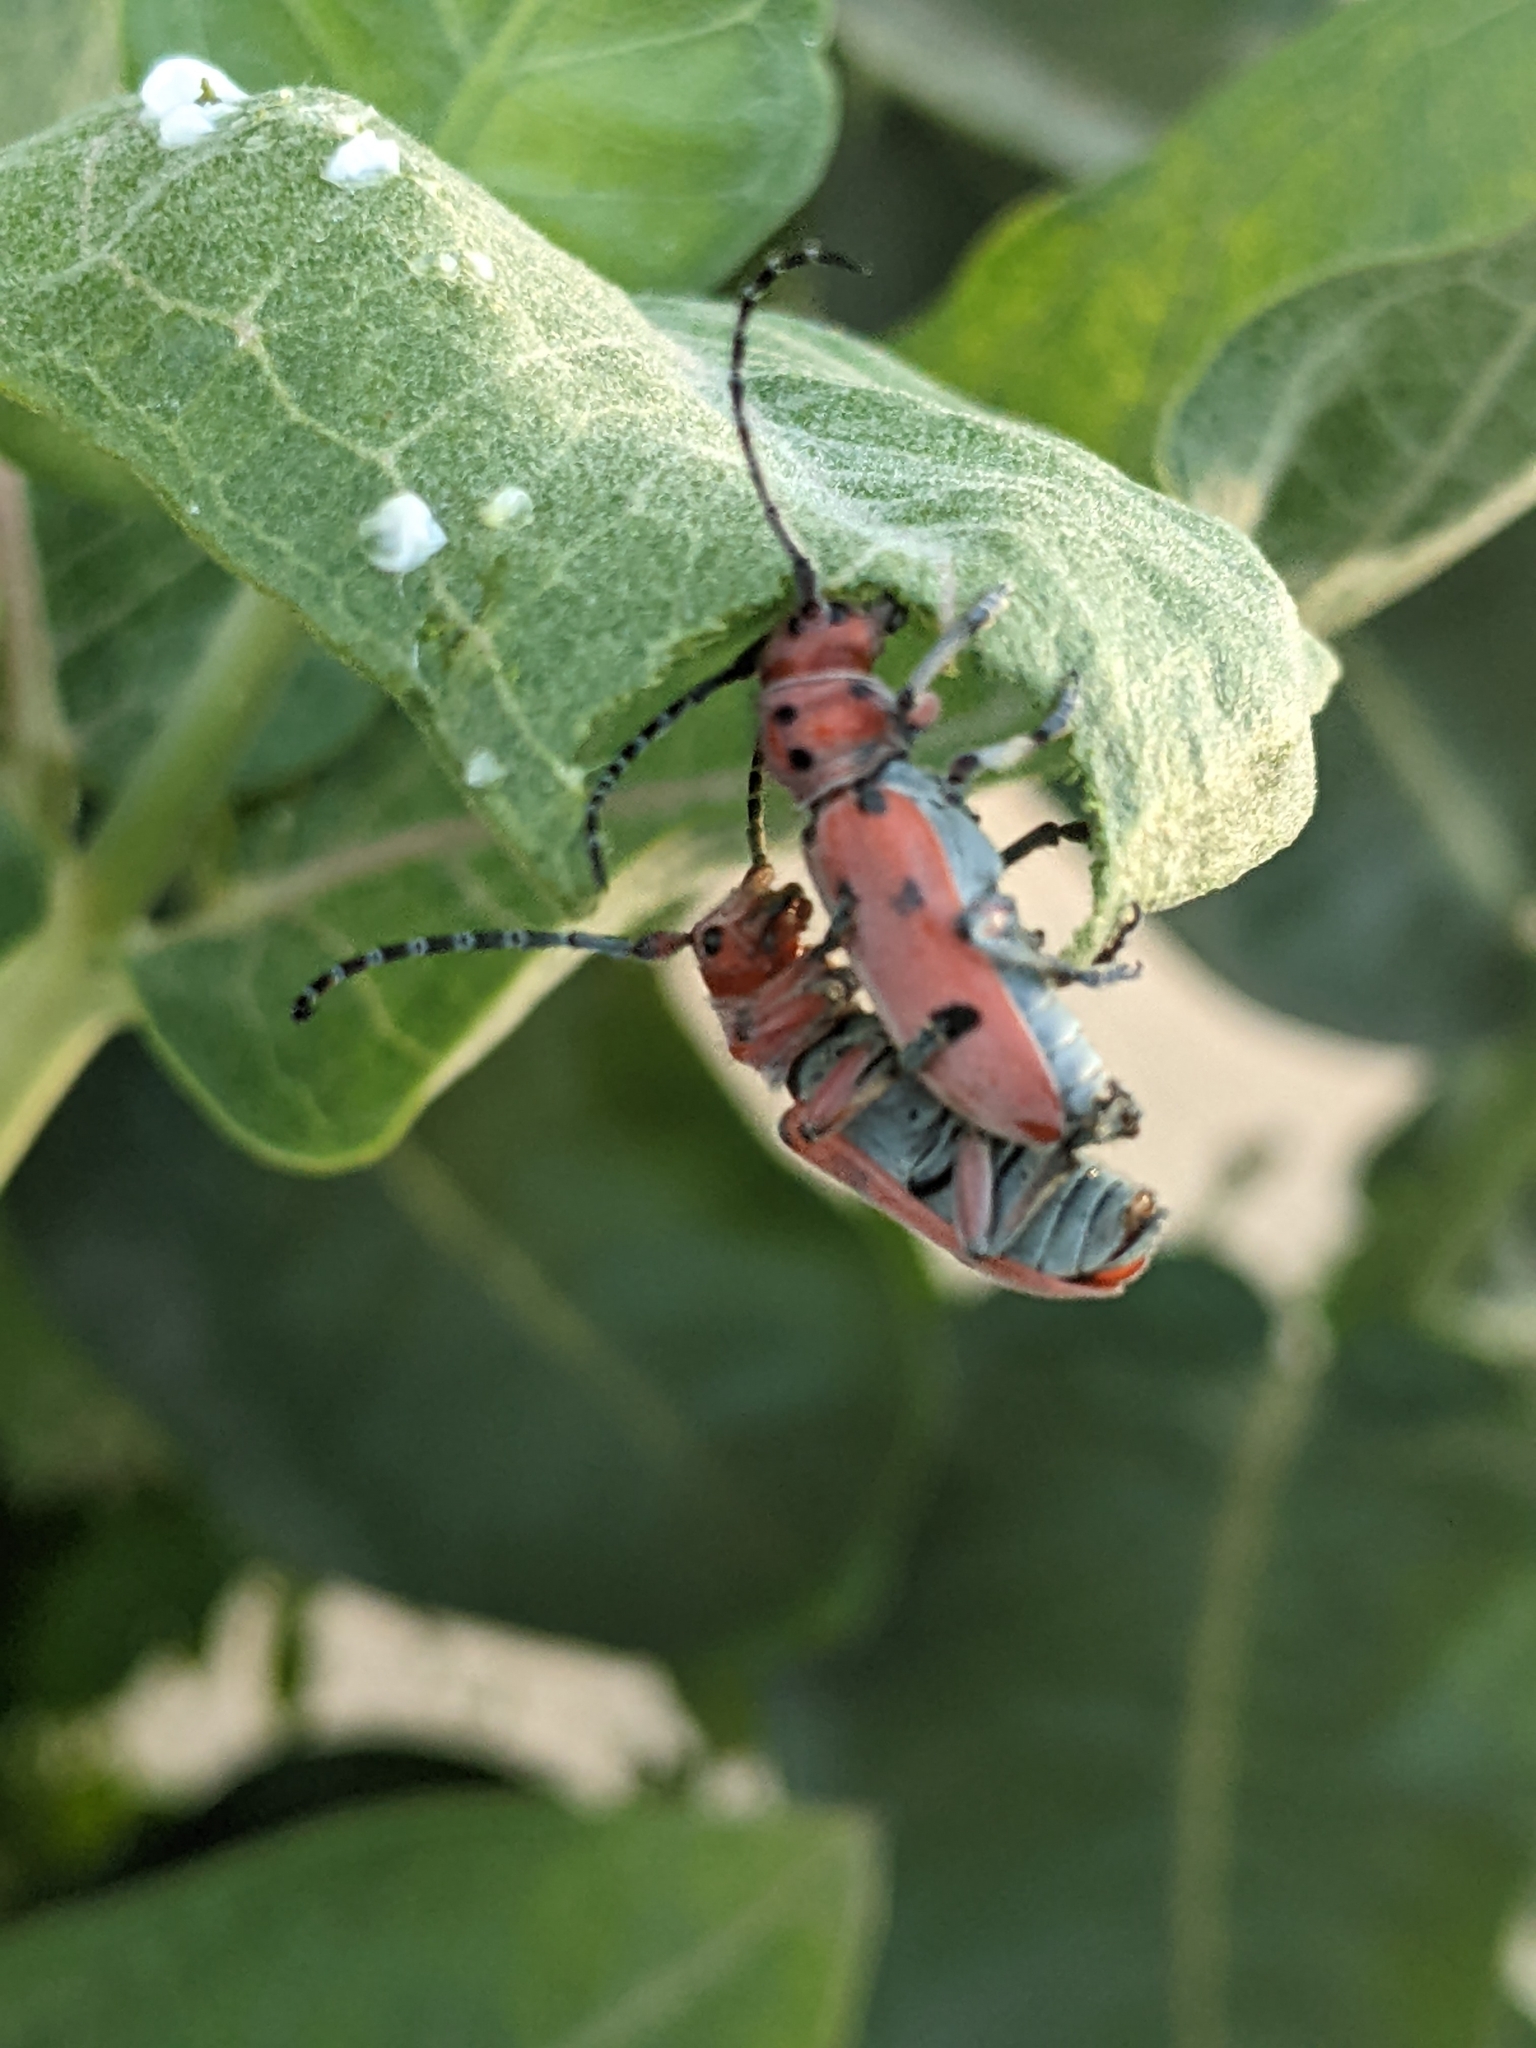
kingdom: Animalia
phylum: Arthropoda
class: Insecta
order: Coleoptera
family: Cerambycidae
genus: Tetraopes
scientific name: Tetraopes femoratus
